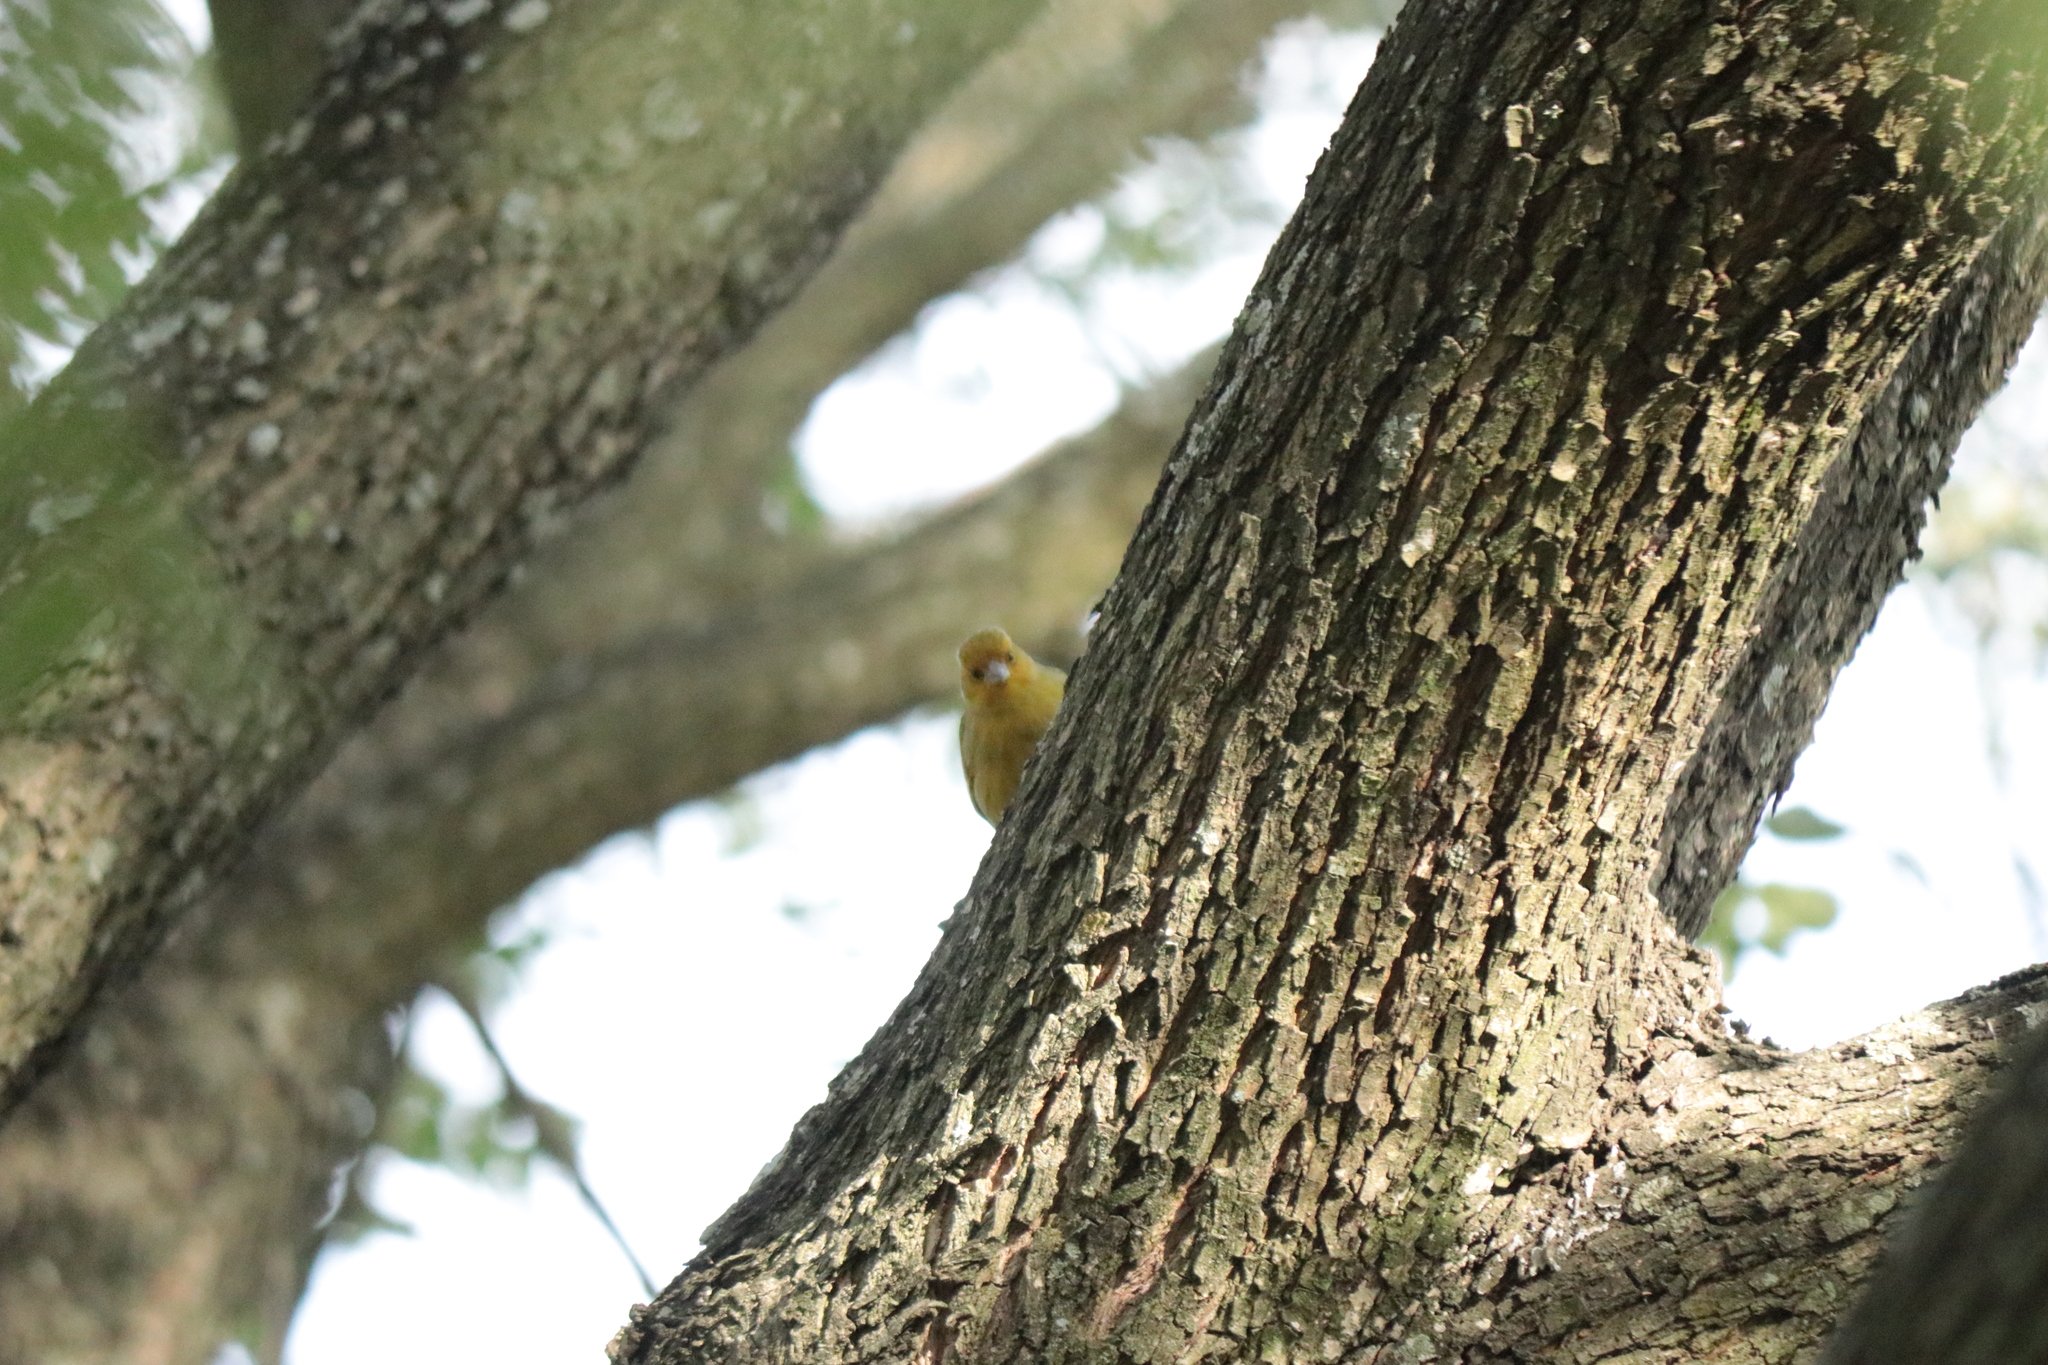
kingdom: Animalia
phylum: Chordata
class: Aves
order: Passeriformes
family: Thraupidae
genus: Sicalis
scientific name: Sicalis flaveola
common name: Saffron finch
